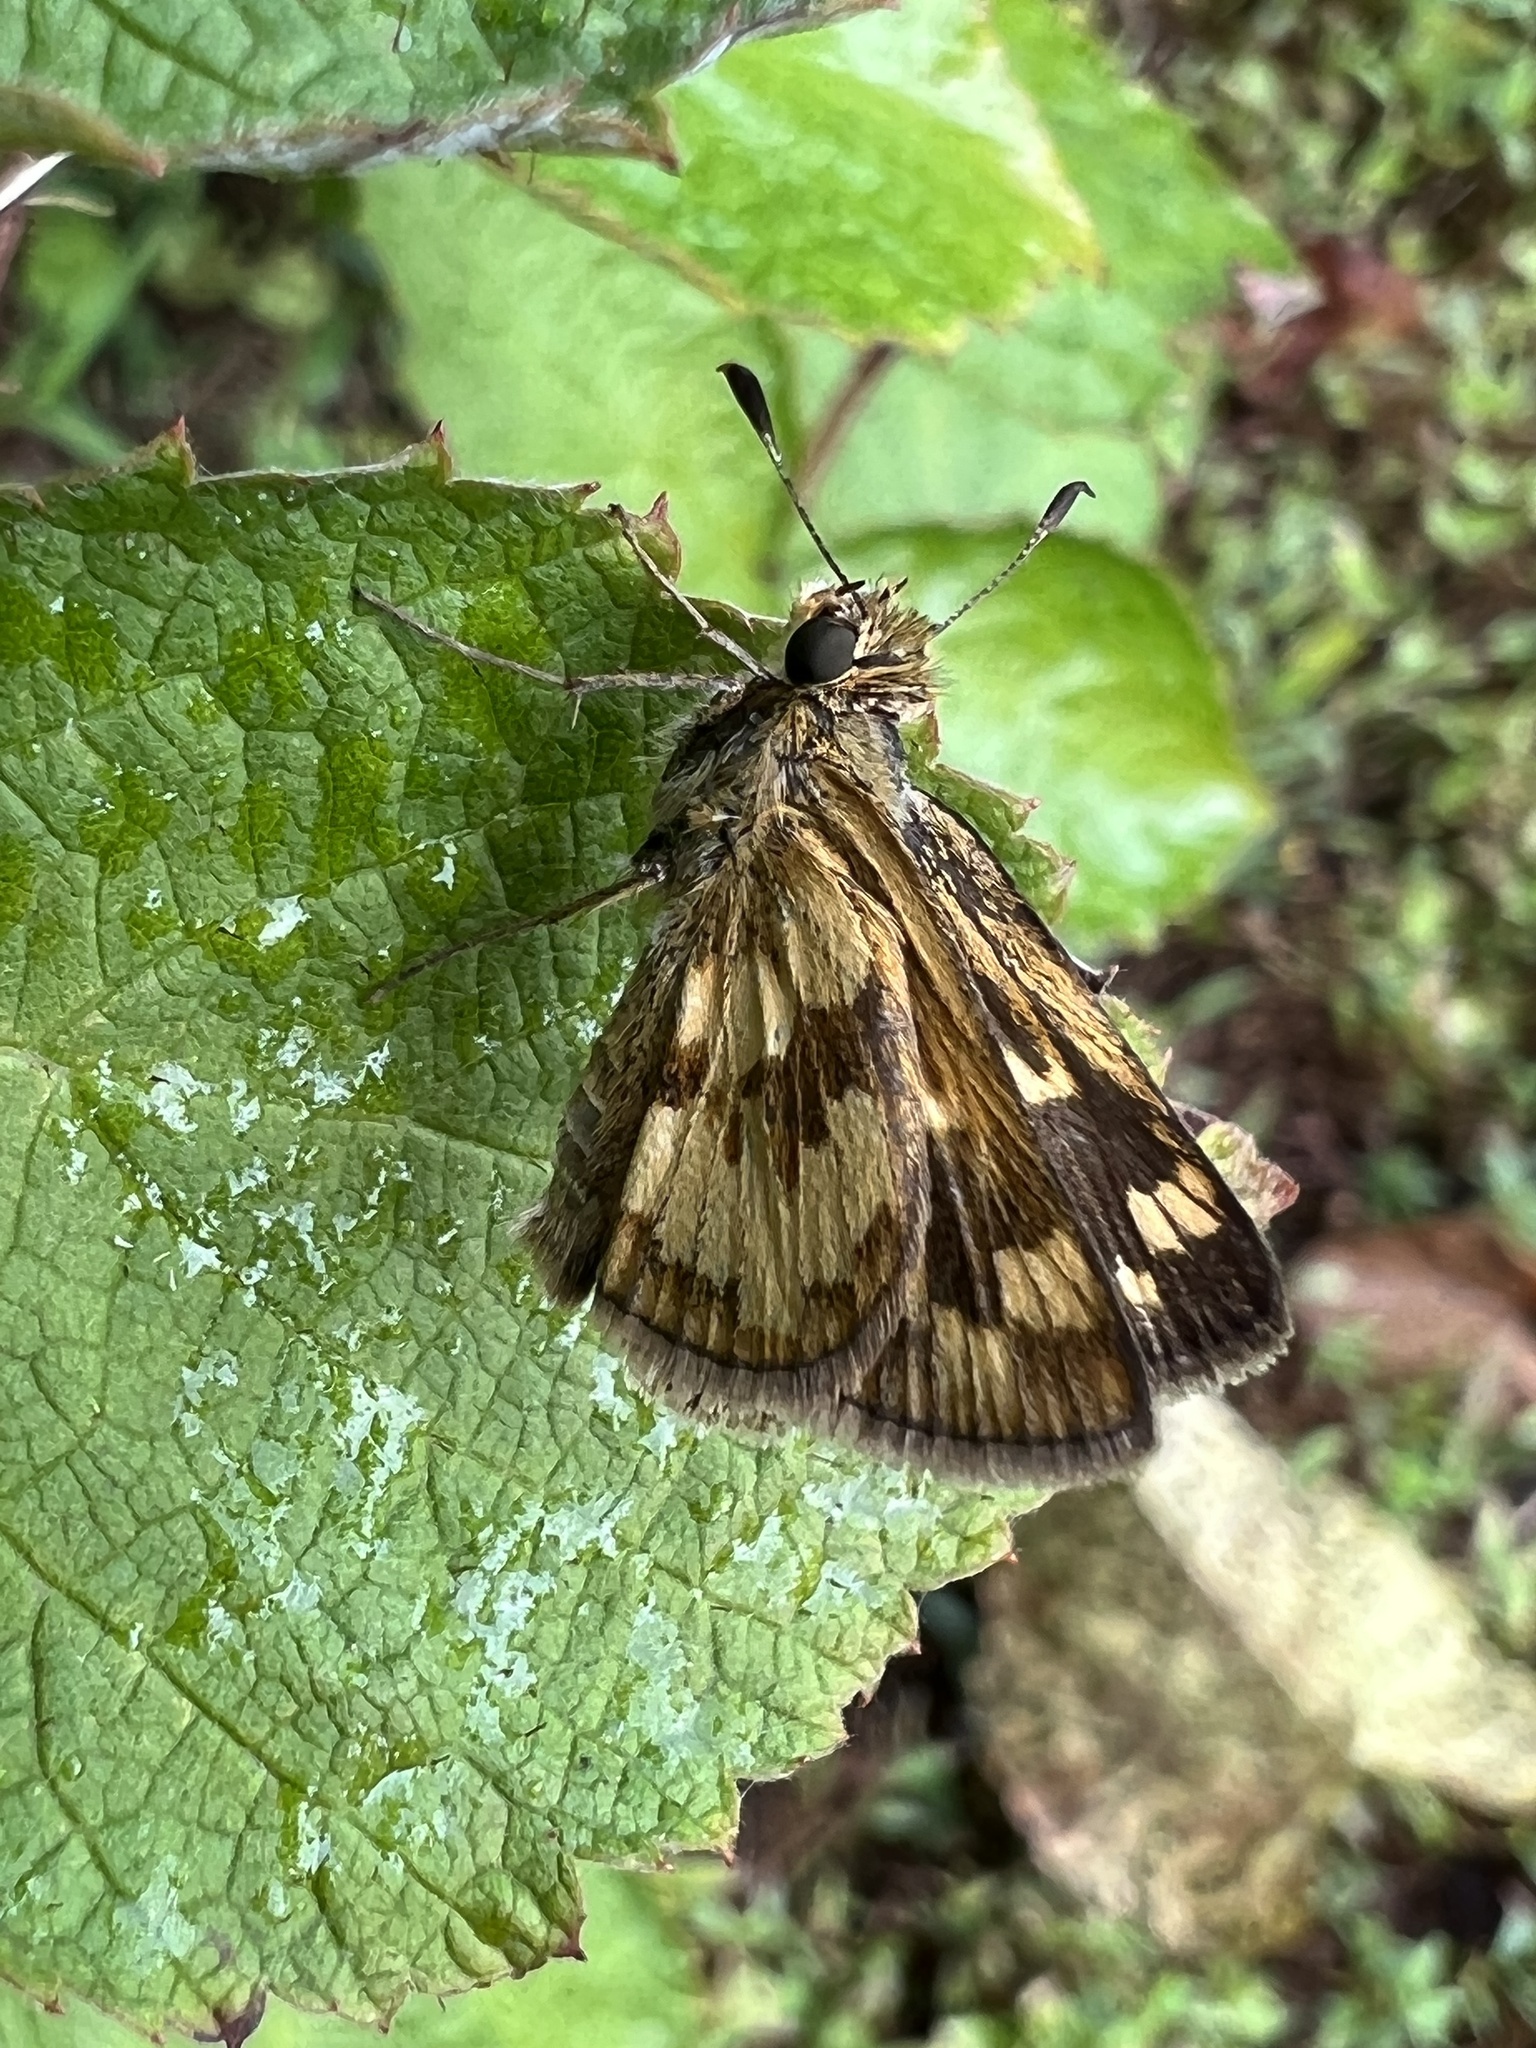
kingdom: Animalia
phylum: Arthropoda
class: Insecta
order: Lepidoptera
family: Hesperiidae
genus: Polites
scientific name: Polites coras
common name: Peck's skipper
